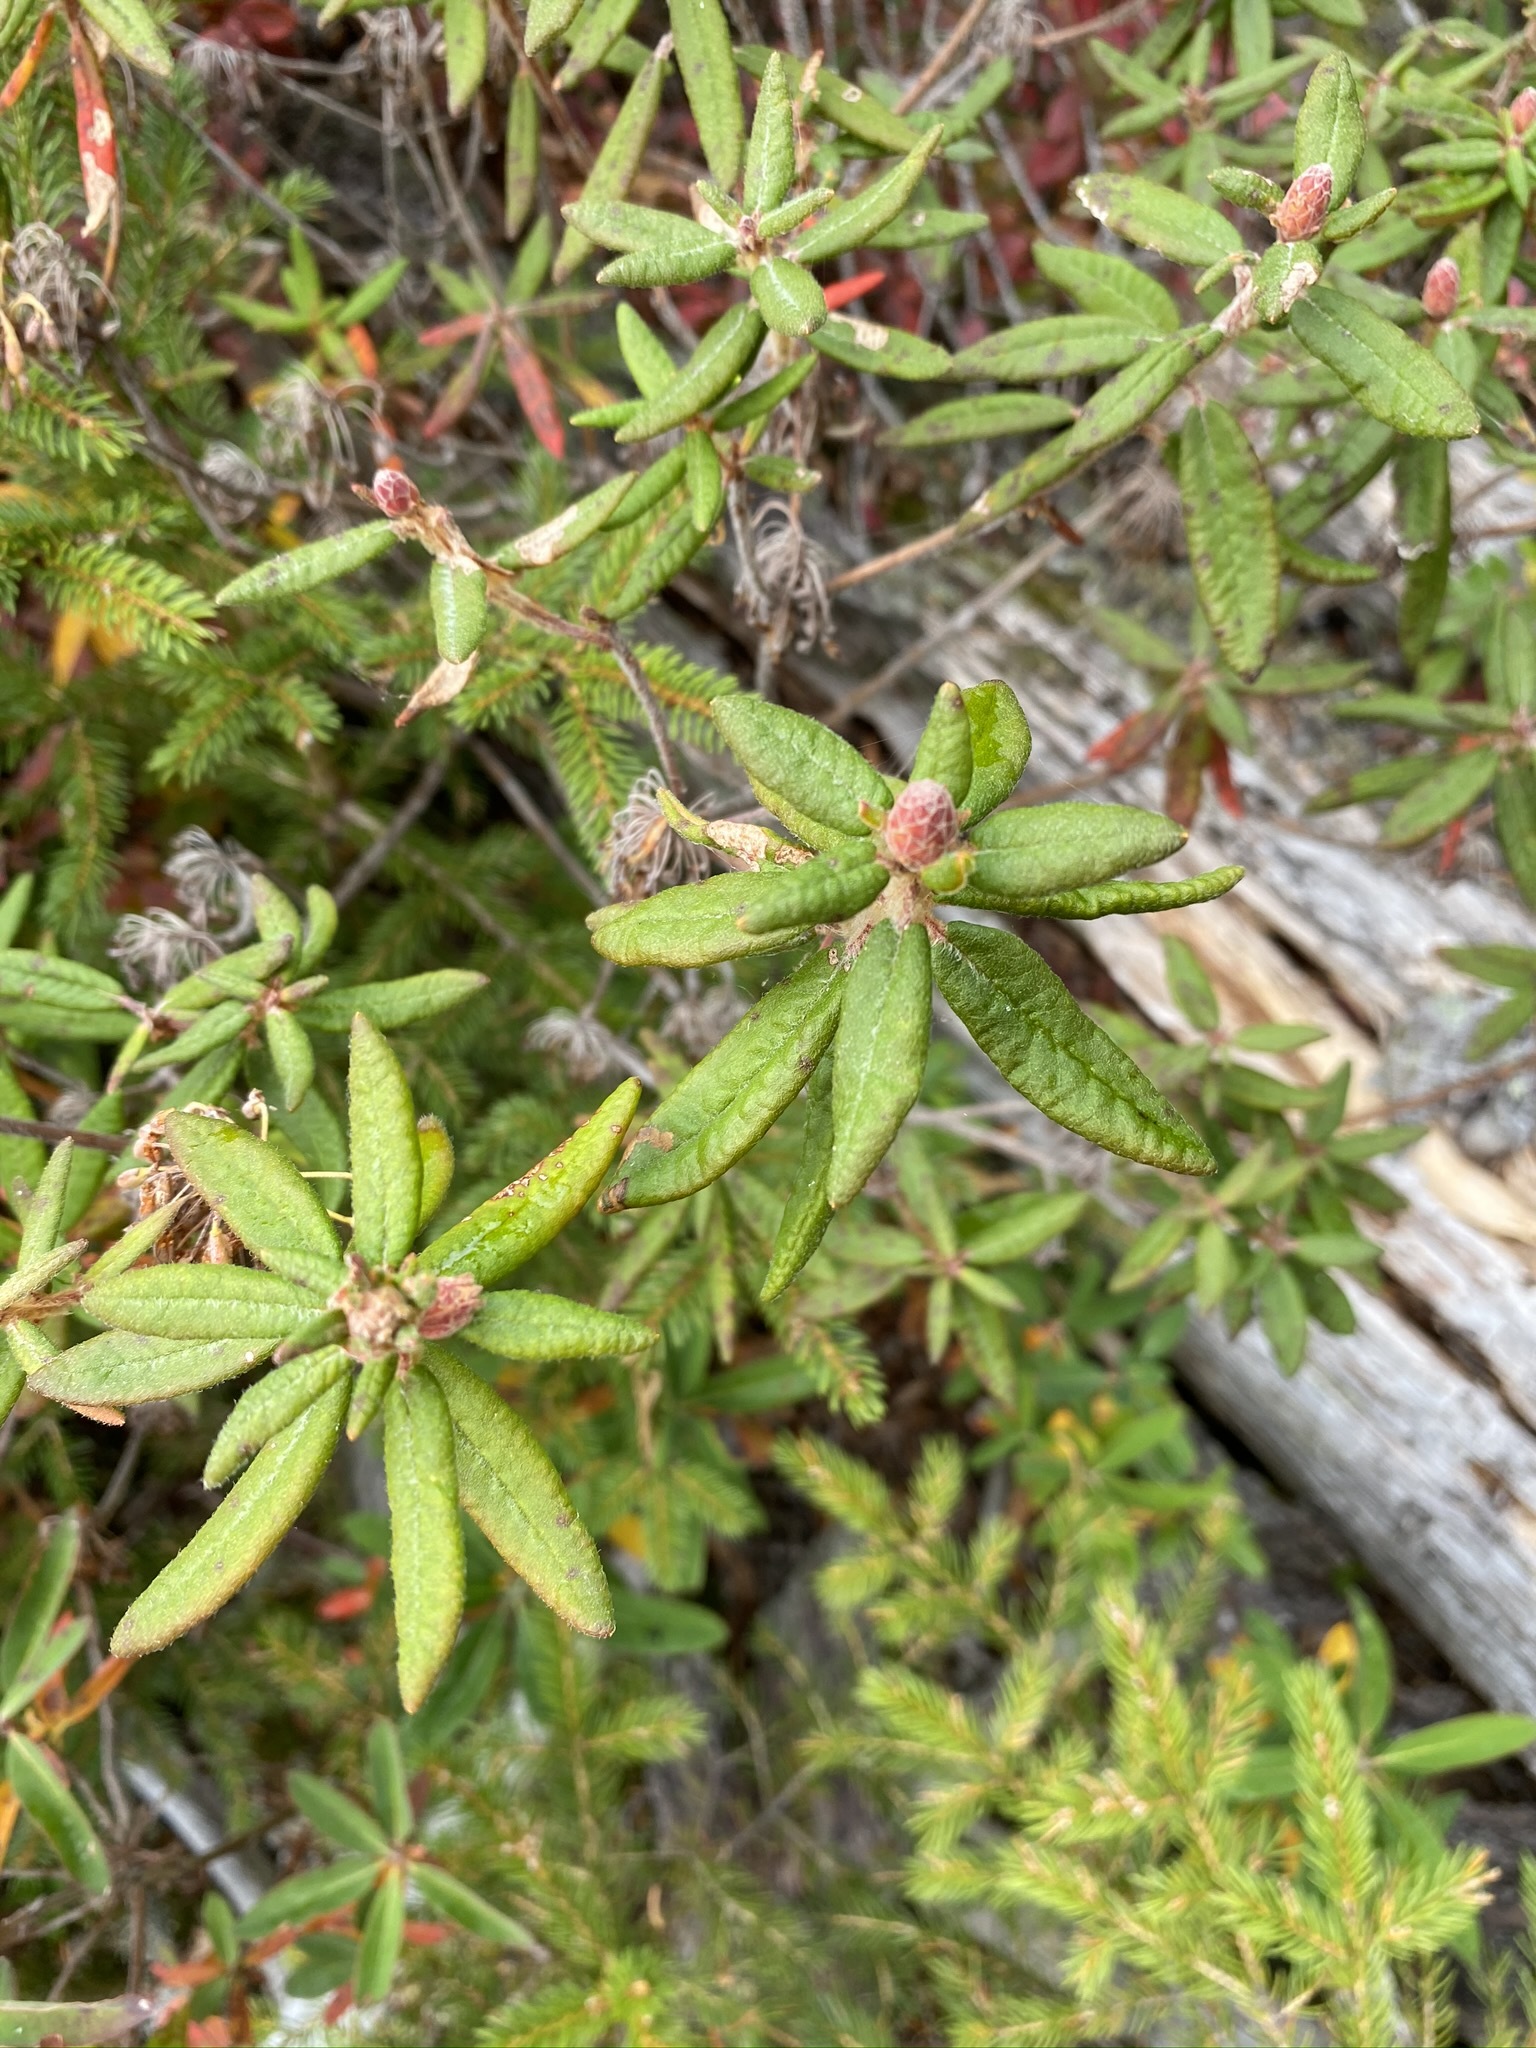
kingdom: Plantae
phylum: Tracheophyta
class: Magnoliopsida
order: Ericales
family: Ericaceae
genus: Rhododendron
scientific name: Rhododendron groenlandicum
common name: Bog labrador tea
